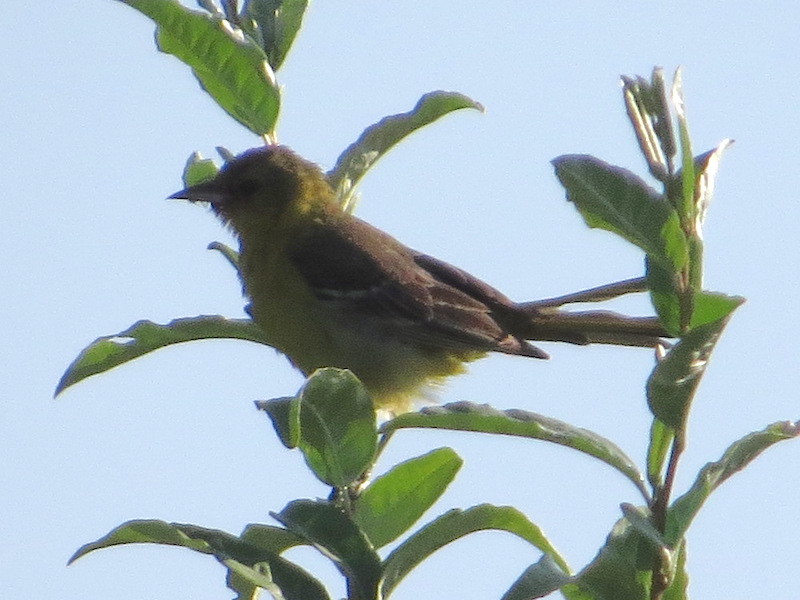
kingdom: Animalia
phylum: Chordata
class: Aves
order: Passeriformes
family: Icteridae
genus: Icterus
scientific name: Icterus spurius
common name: Orchard oriole
